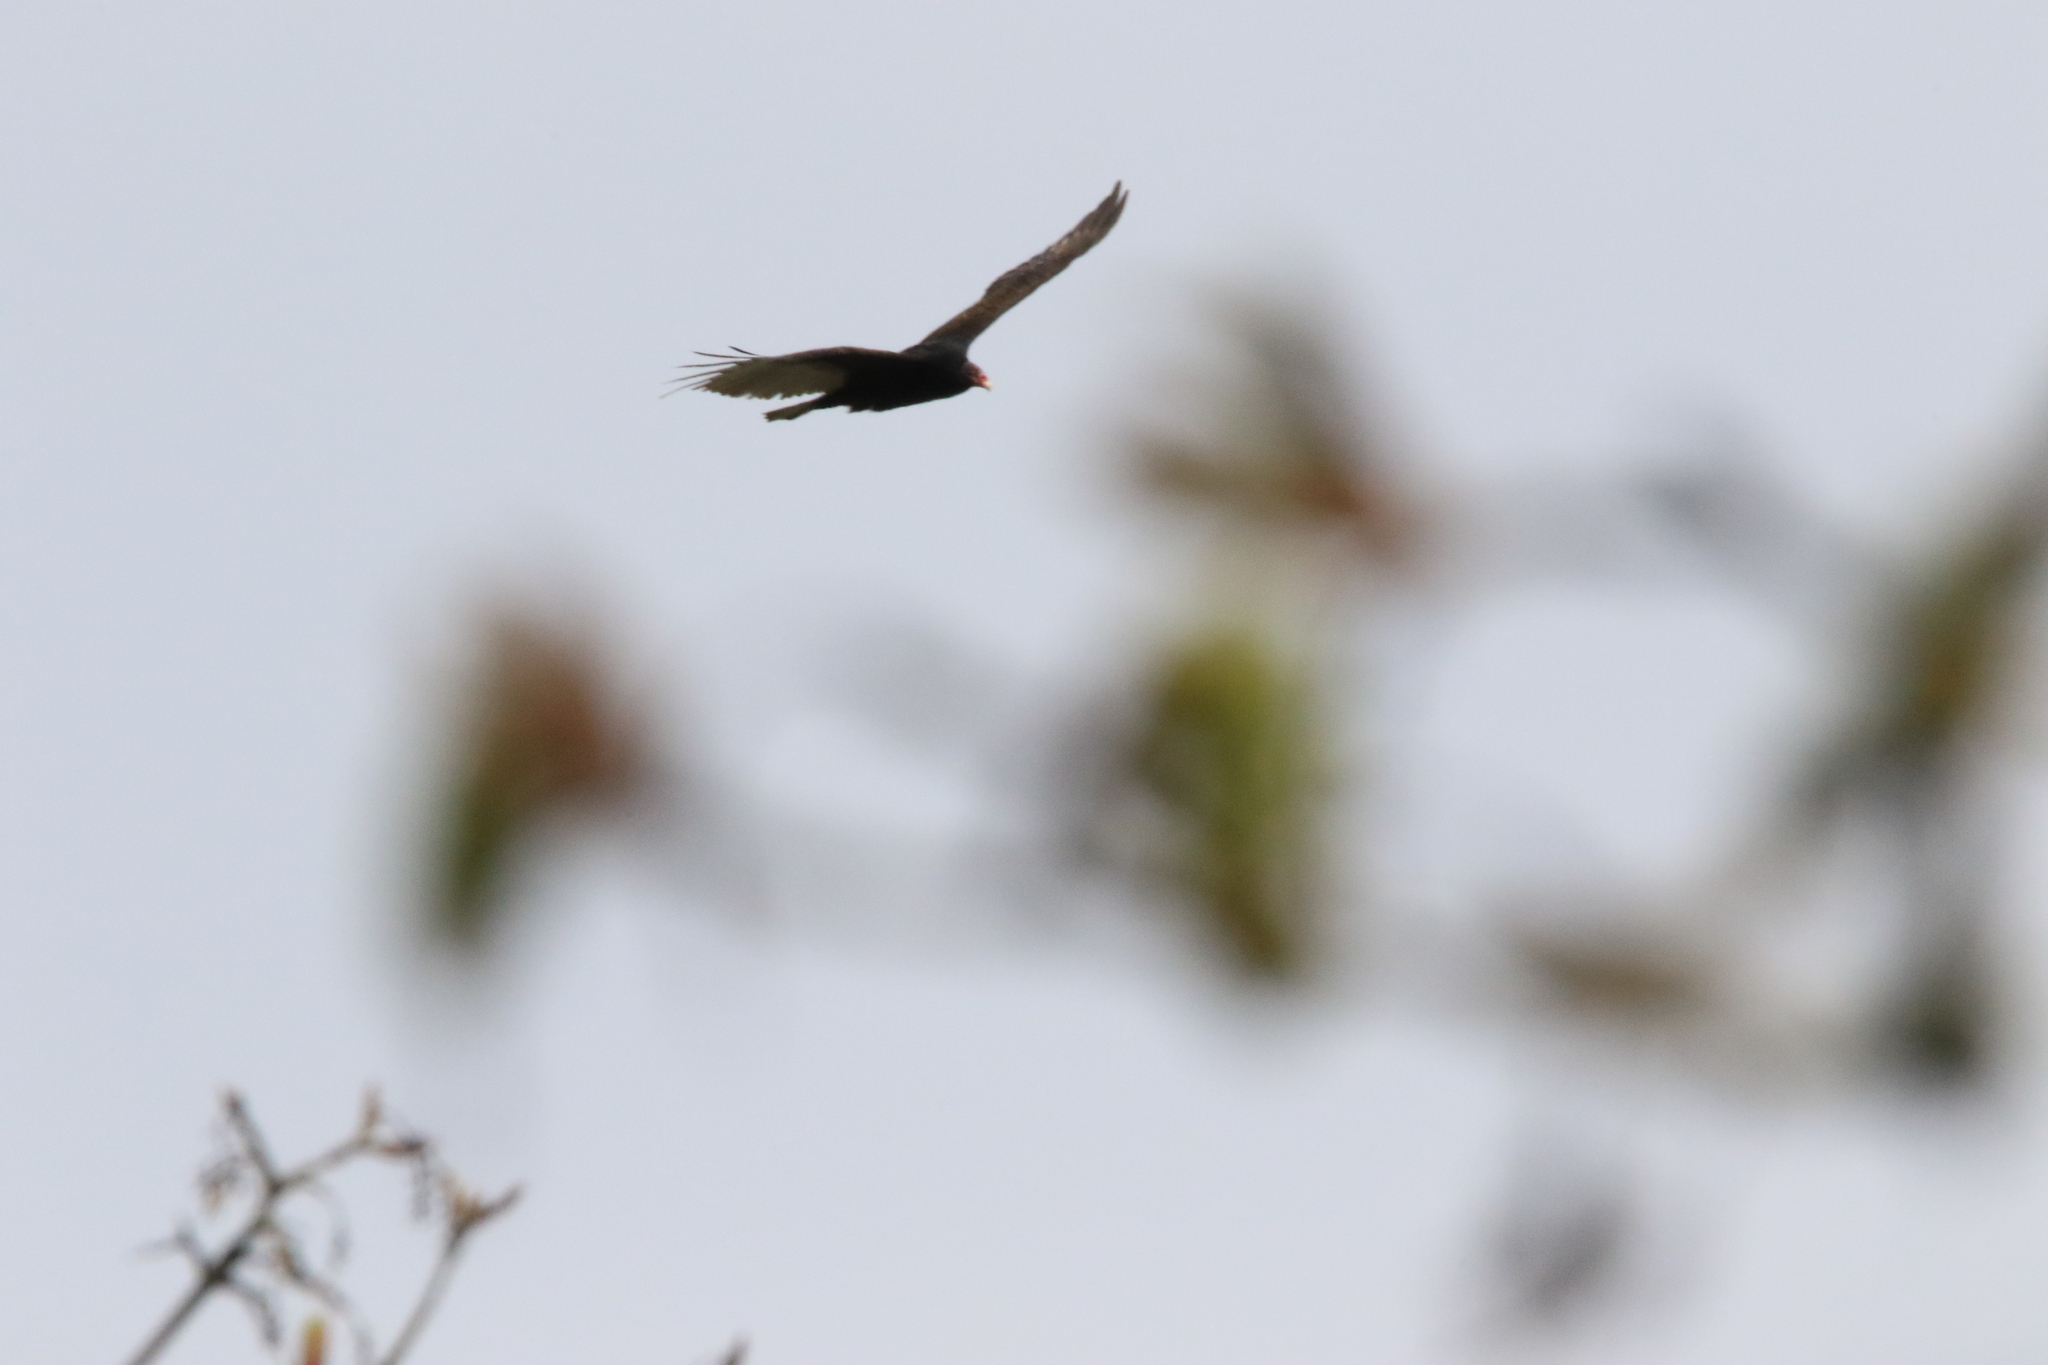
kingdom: Animalia
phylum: Chordata
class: Aves
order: Accipitriformes
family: Cathartidae
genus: Cathartes
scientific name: Cathartes aura
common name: Turkey vulture
